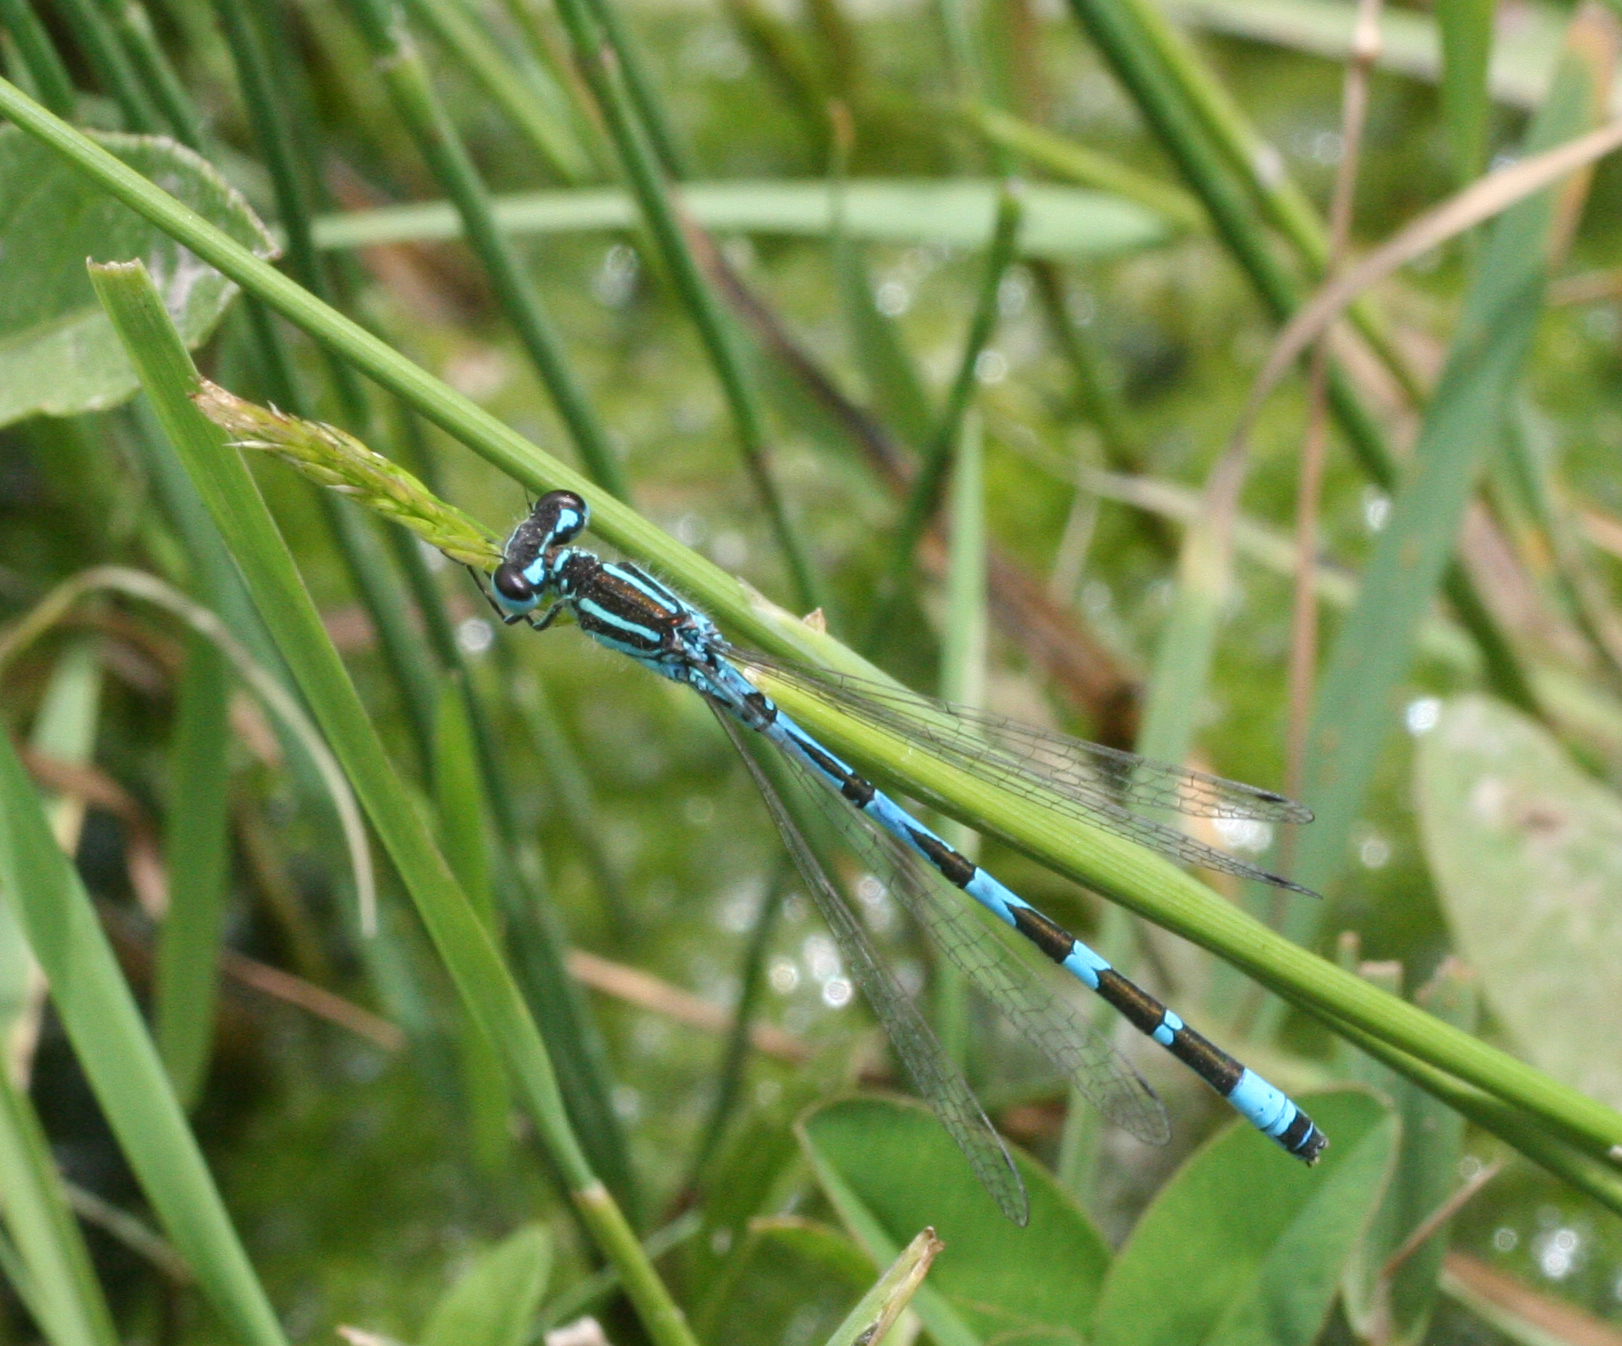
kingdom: Animalia
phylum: Arthropoda
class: Insecta
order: Odonata
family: Coenagrionidae
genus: Coenagrion
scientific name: Coenagrion ornatum
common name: Ornate bluet
